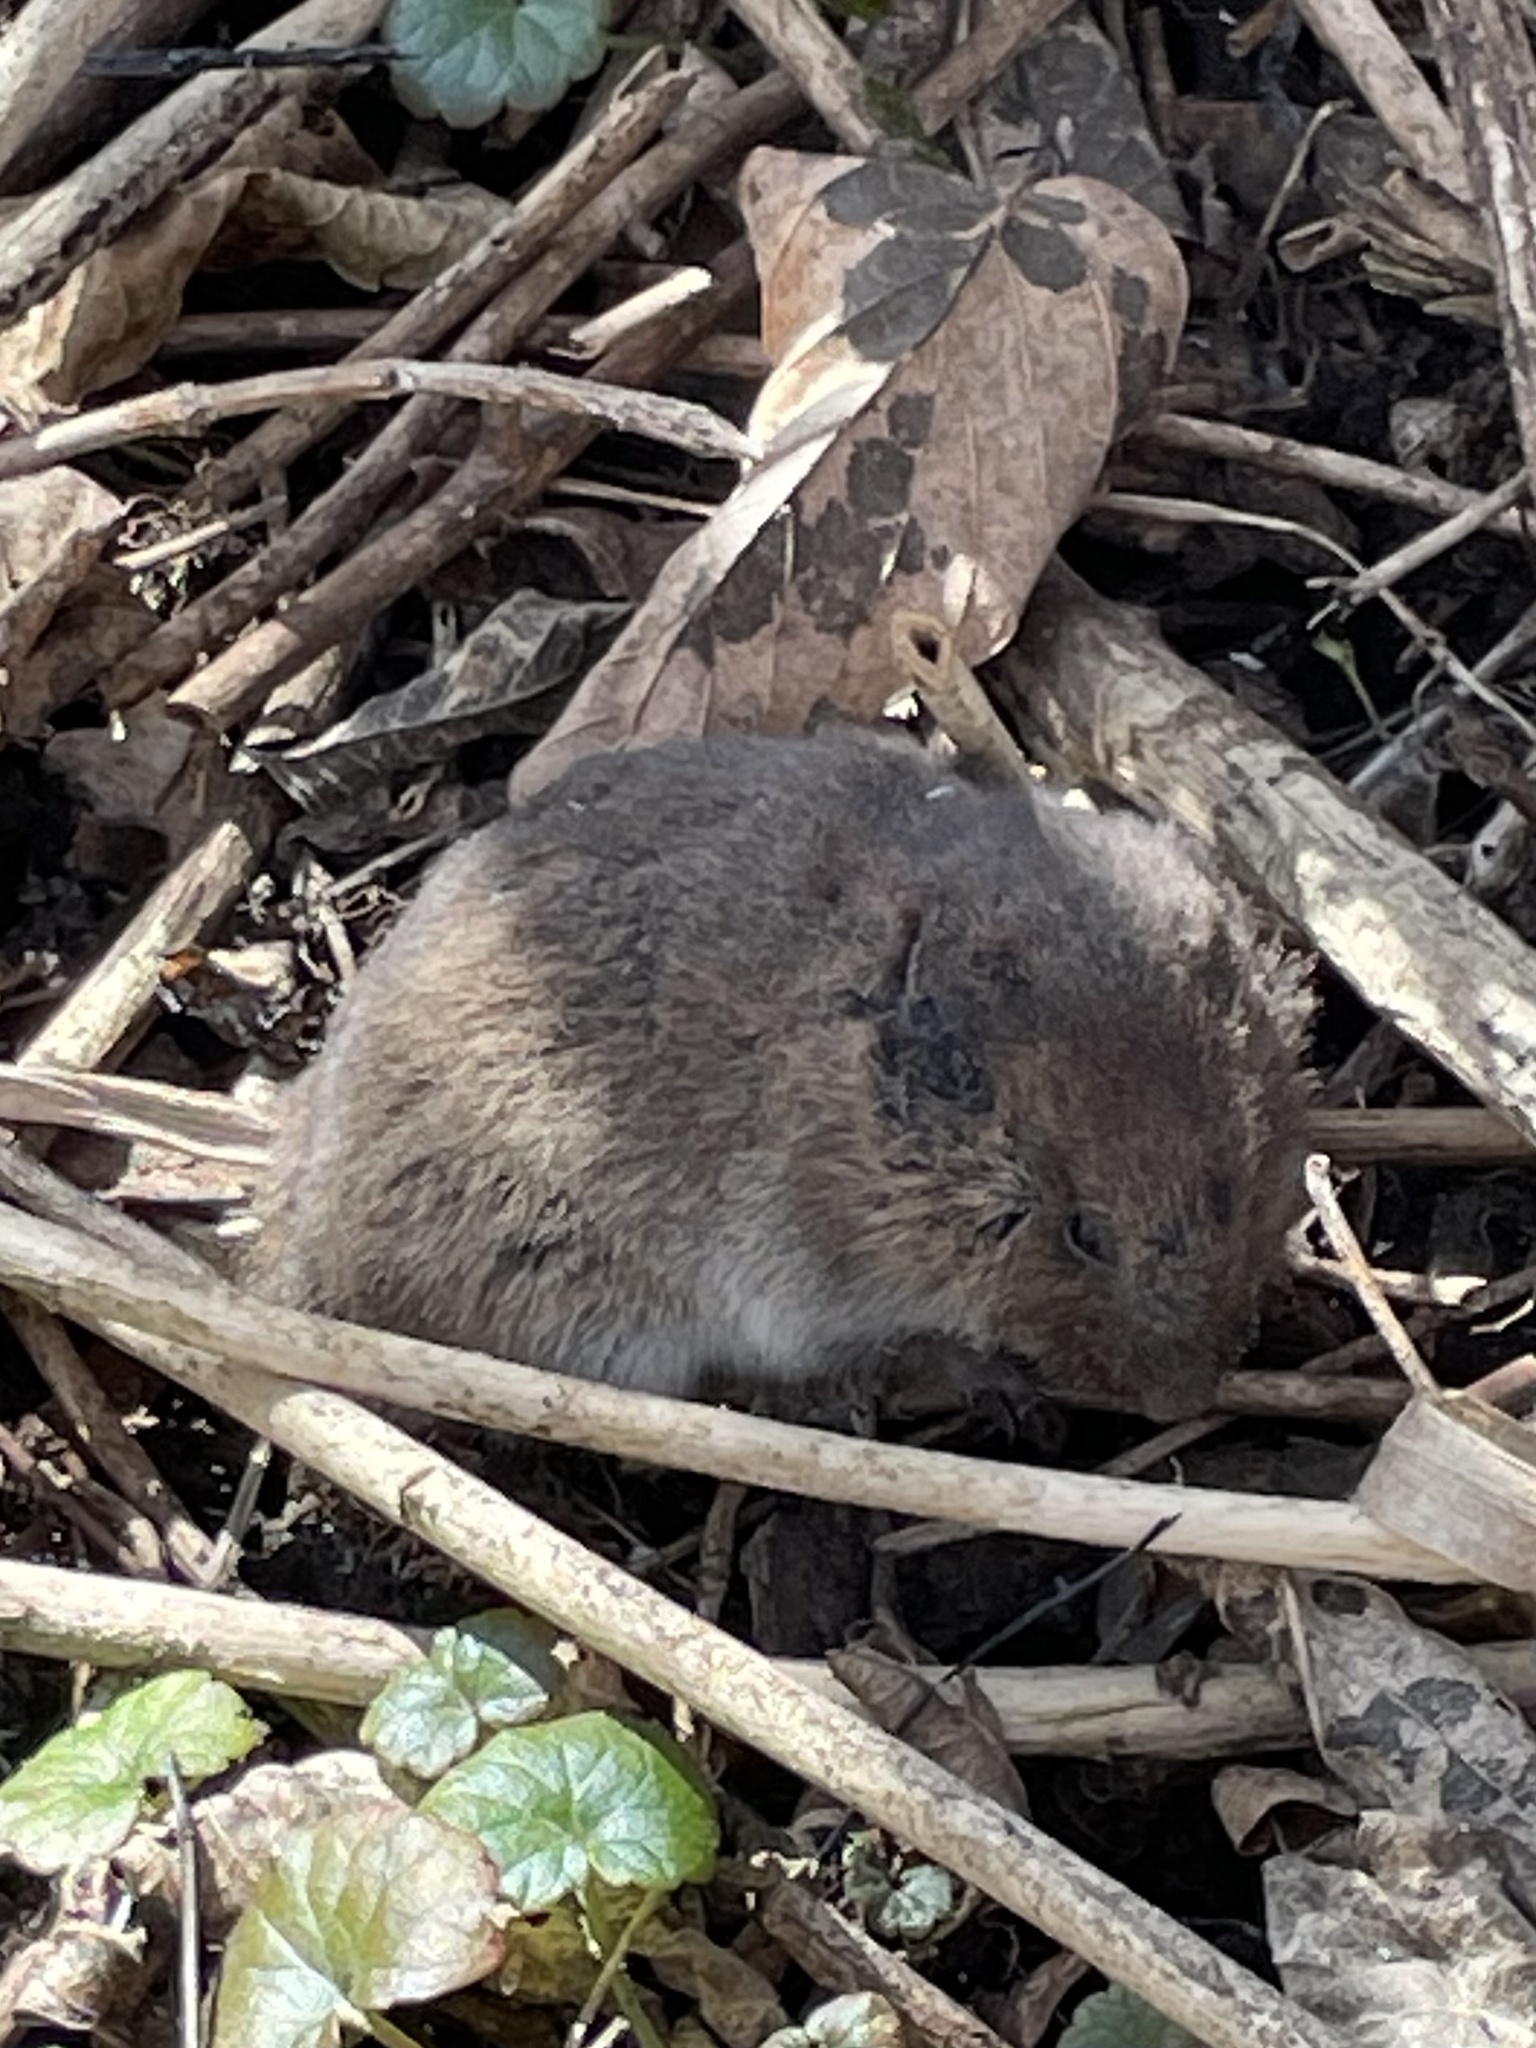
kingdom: Animalia
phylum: Chordata
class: Mammalia
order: Rodentia
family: Cricetidae
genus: Microtus
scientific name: Microtus pennsylvanicus
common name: Meadow vole
